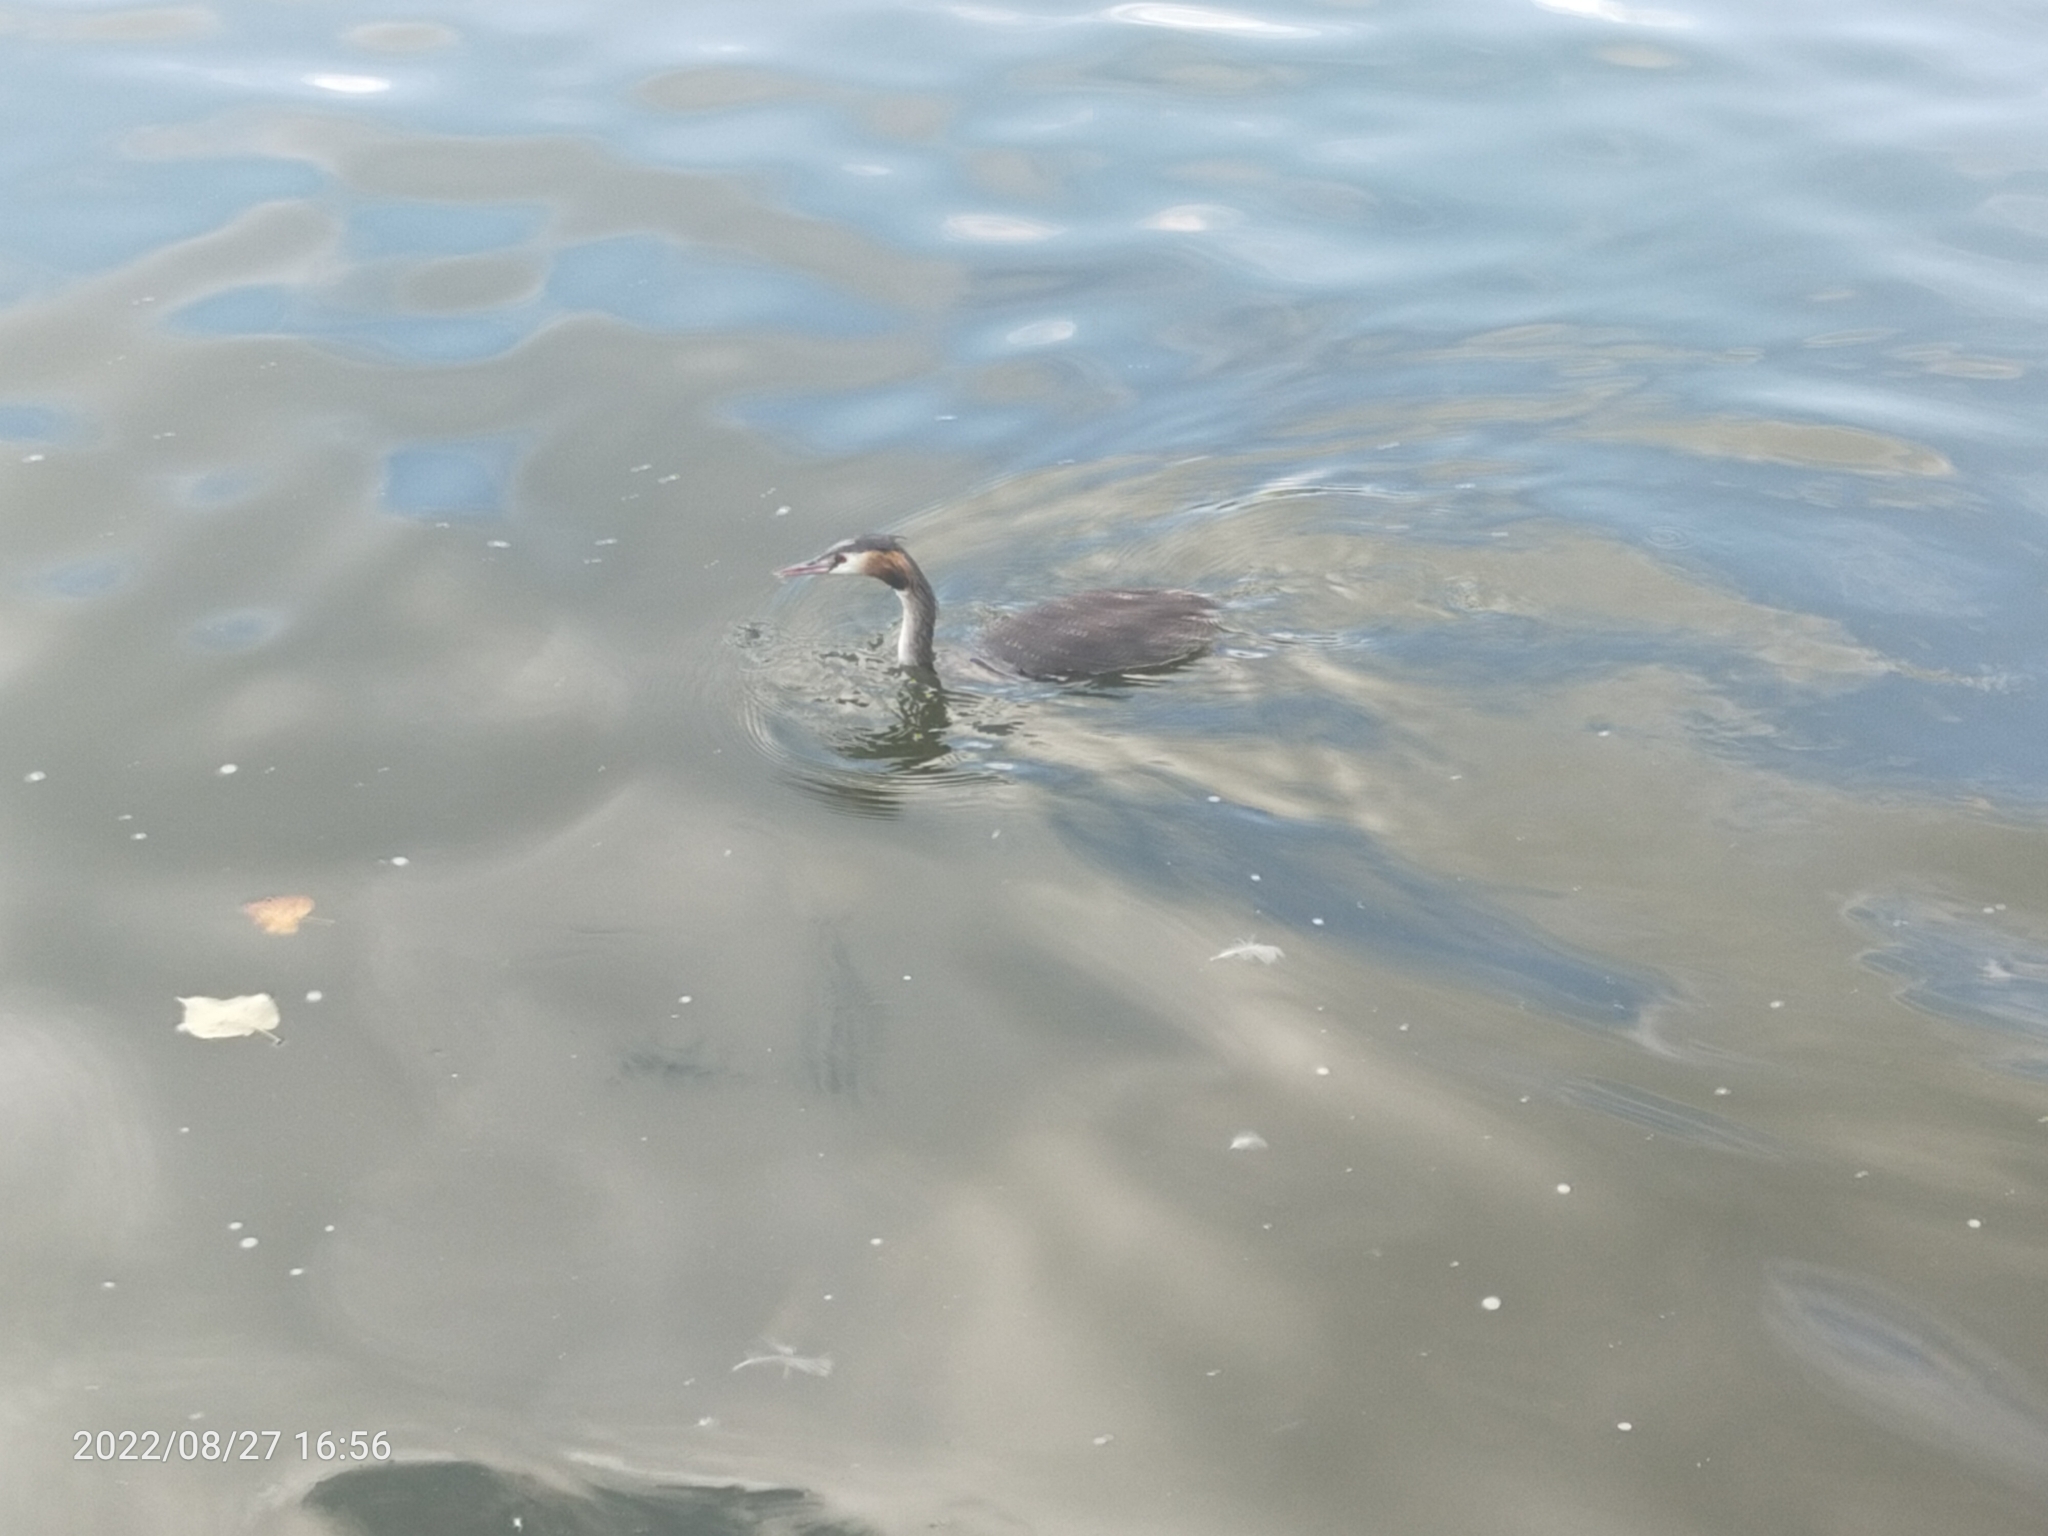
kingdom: Animalia
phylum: Chordata
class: Aves
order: Podicipediformes
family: Podicipedidae
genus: Podiceps
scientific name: Podiceps cristatus
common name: Great crested grebe
